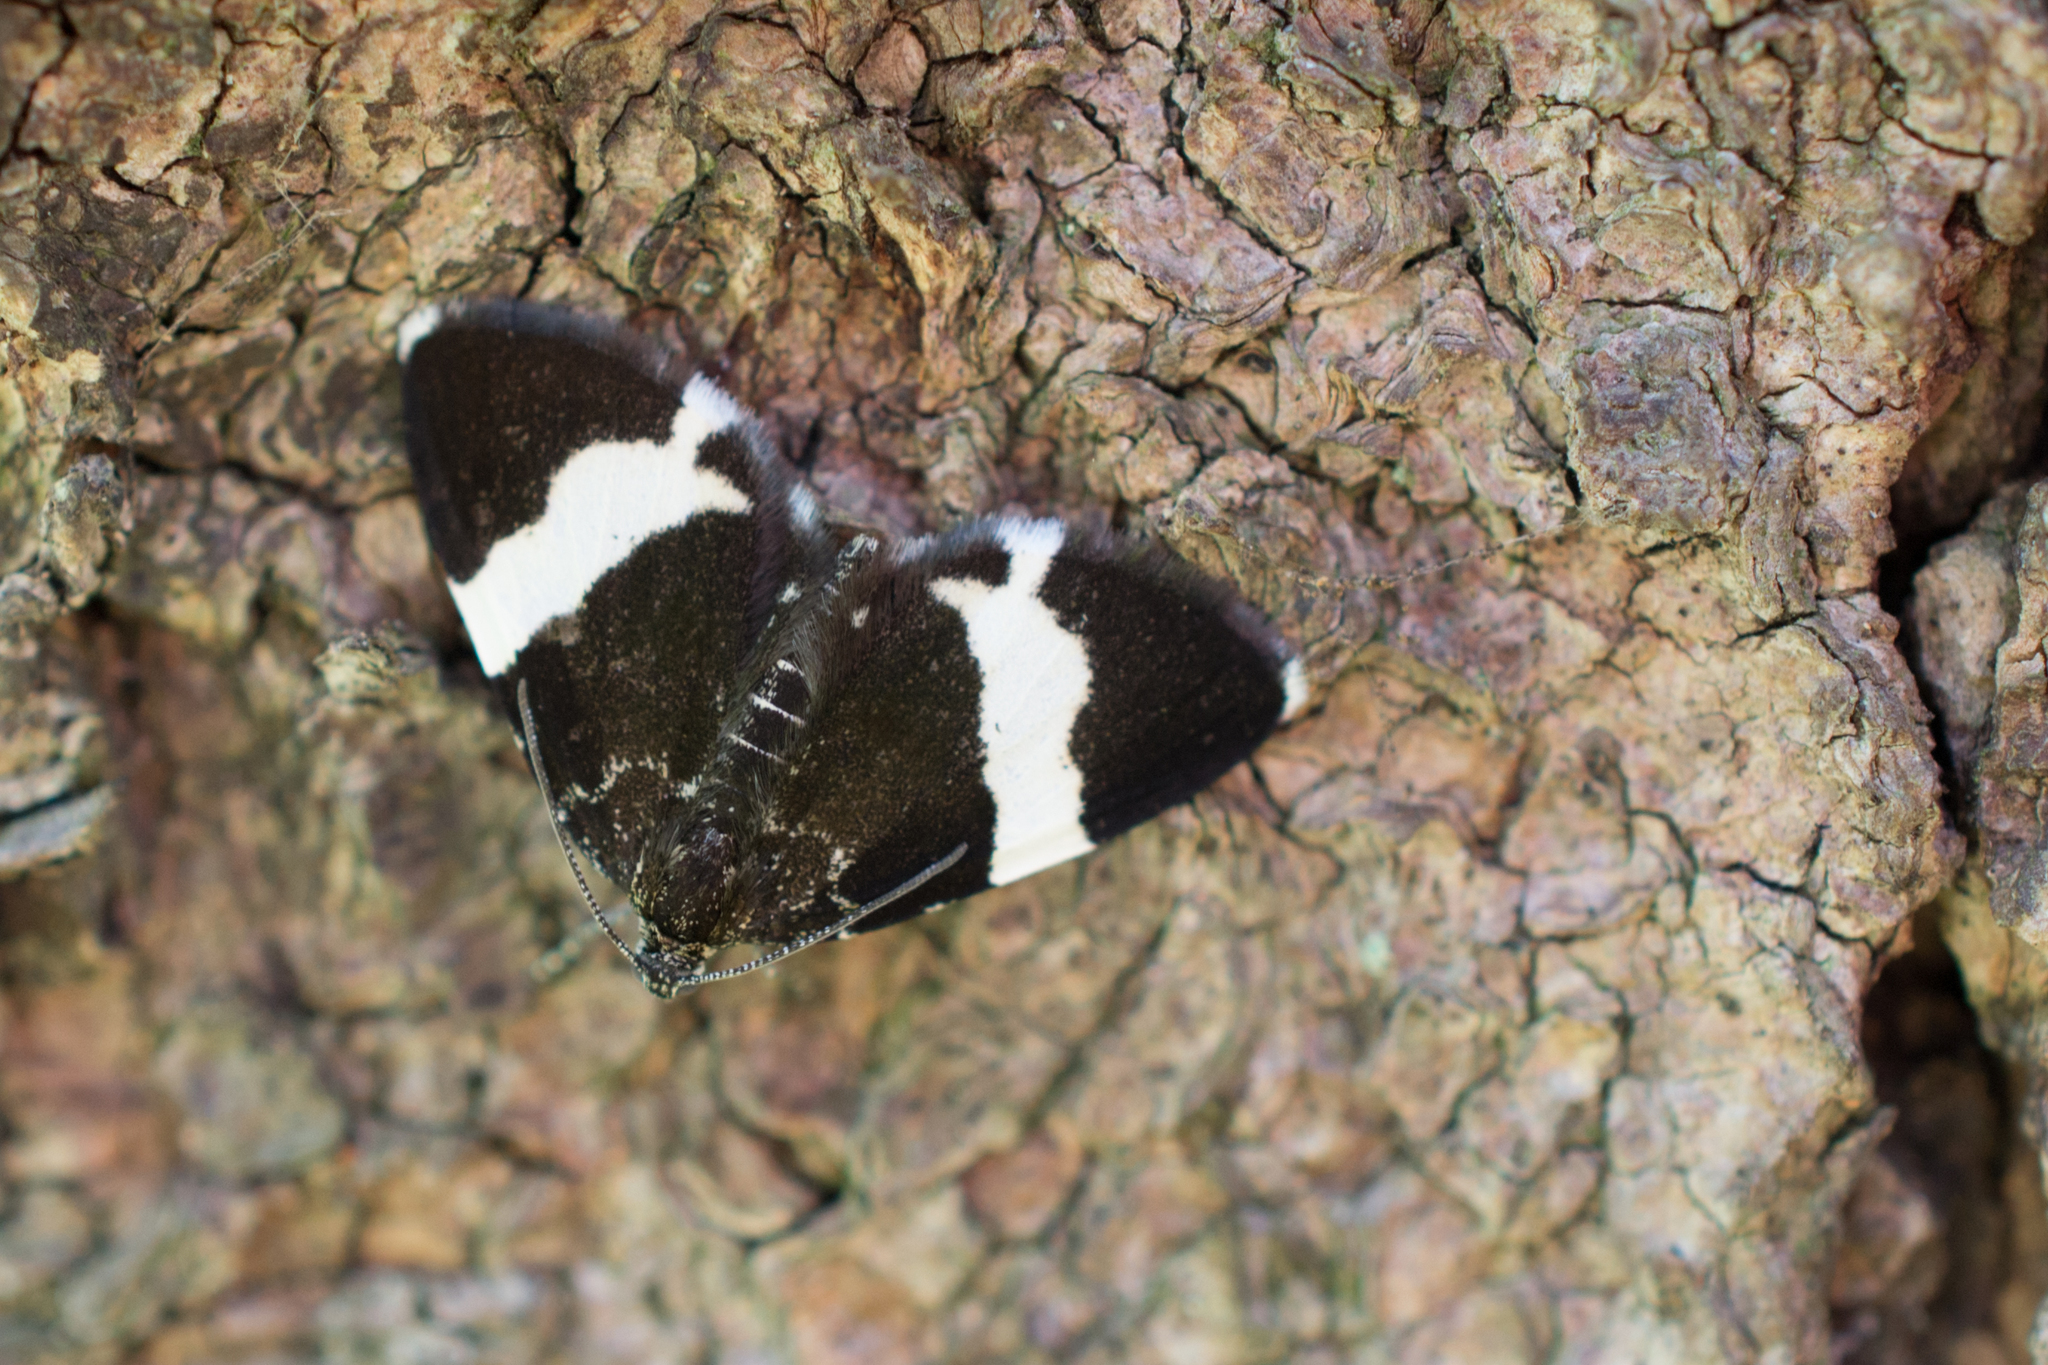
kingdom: Animalia
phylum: Arthropoda
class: Insecta
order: Lepidoptera
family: Geometridae
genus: Trichodezia
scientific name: Trichodezia albovittata
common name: White striped black
